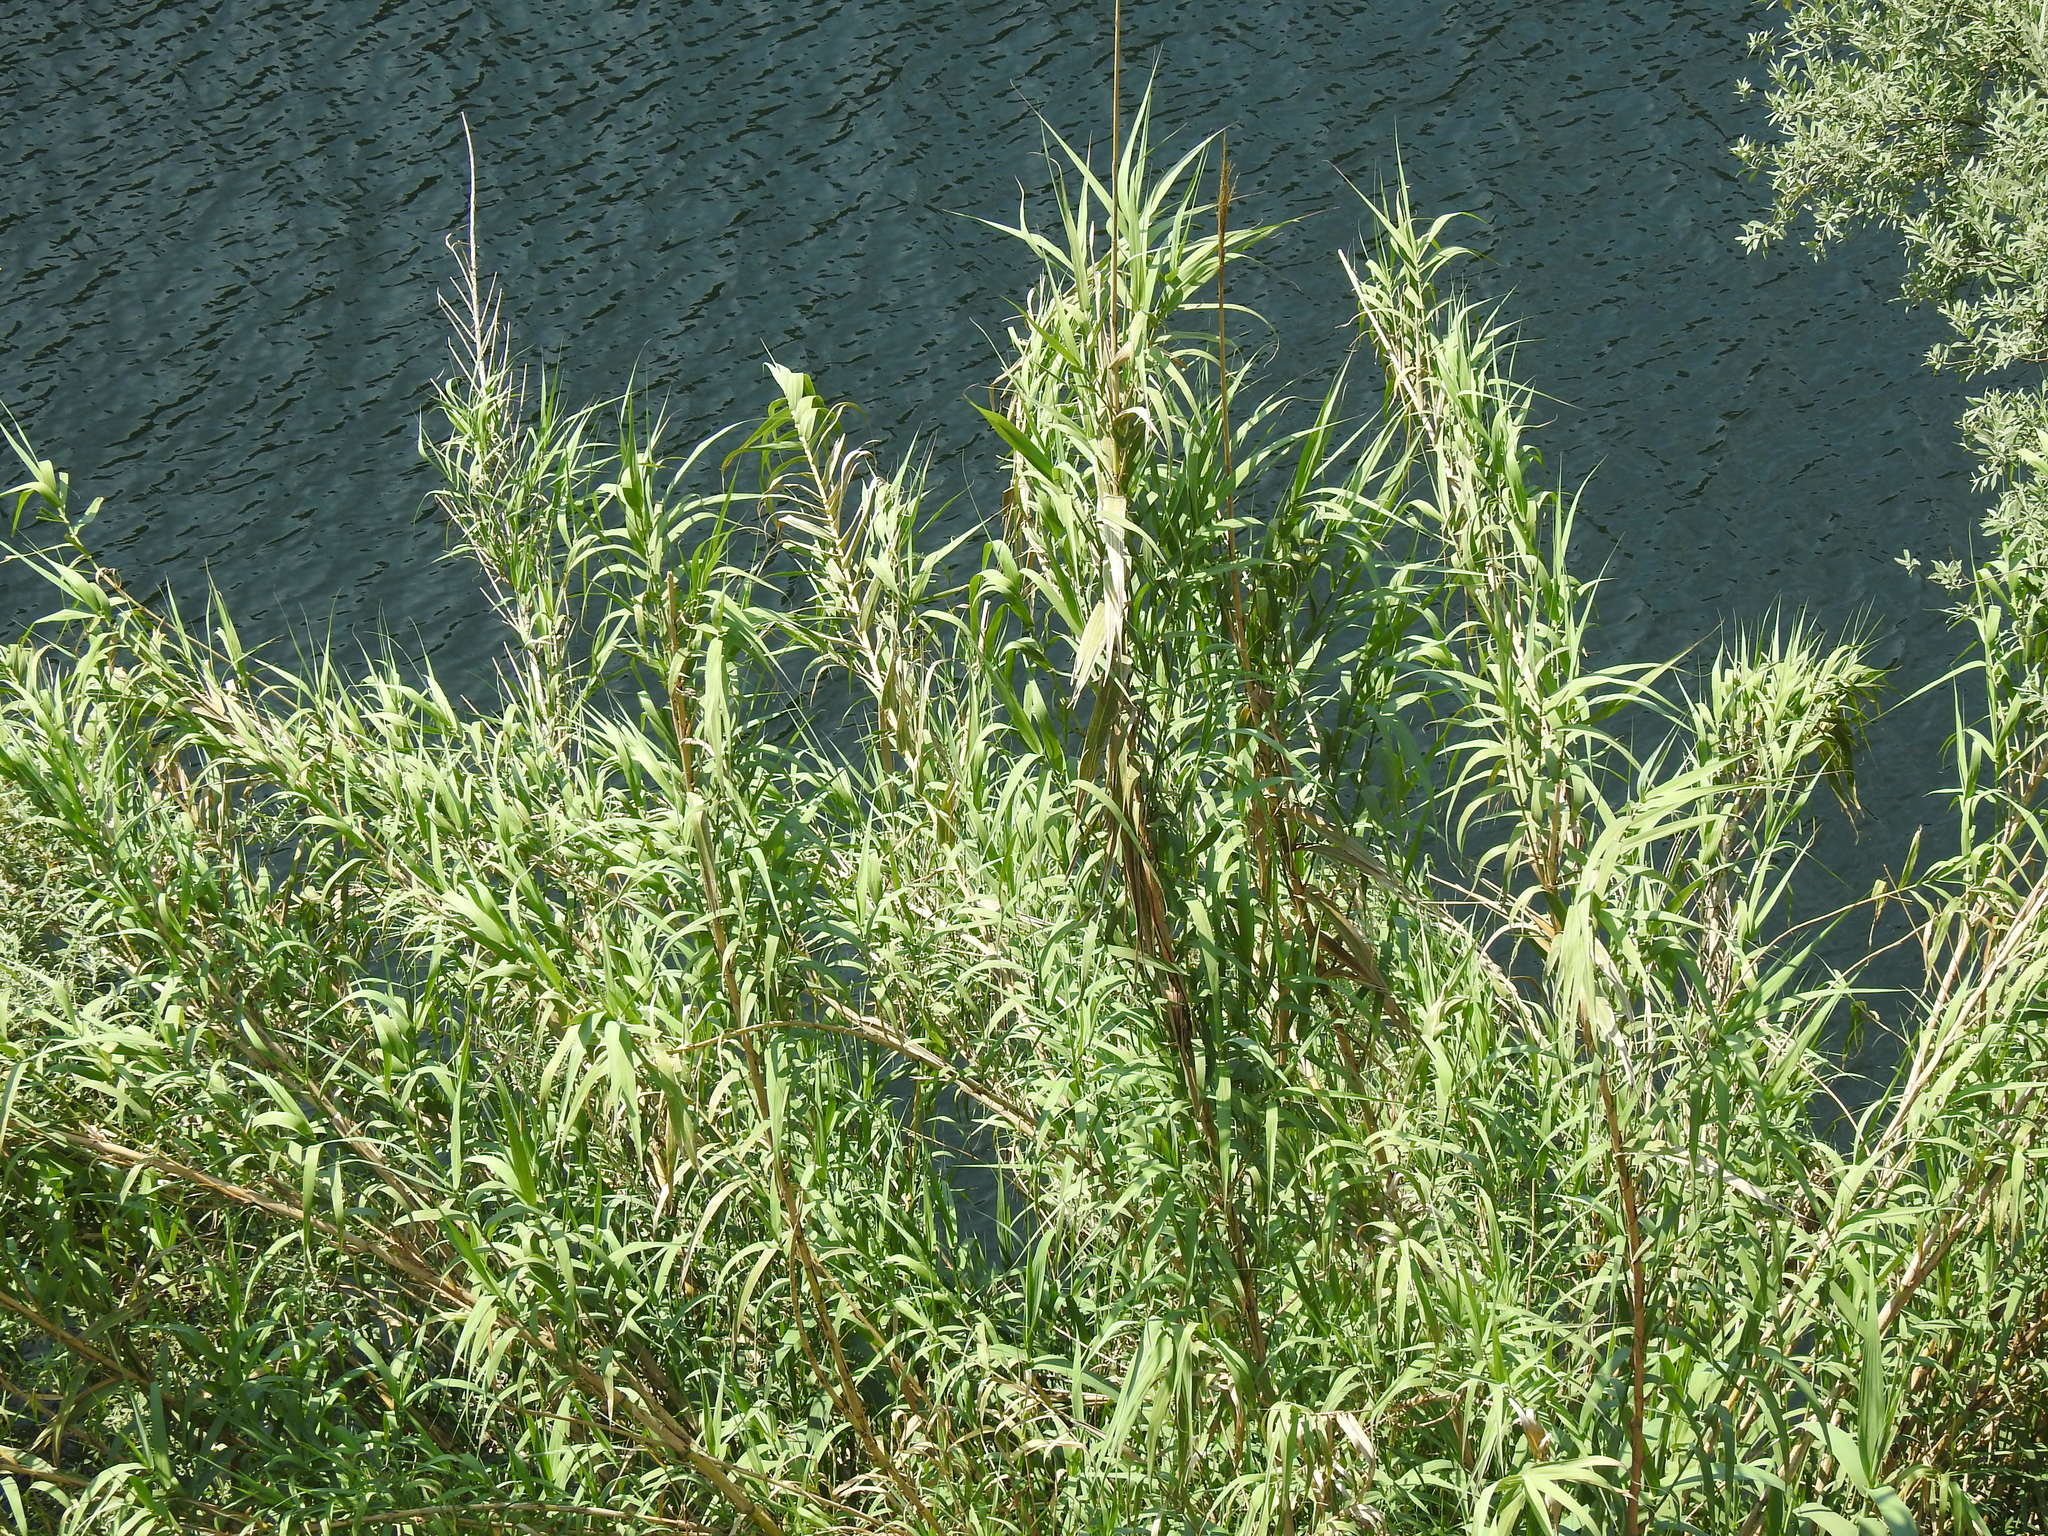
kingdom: Plantae
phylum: Tracheophyta
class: Liliopsida
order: Poales
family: Poaceae
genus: Arundo
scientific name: Arundo donax
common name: Giant reed
